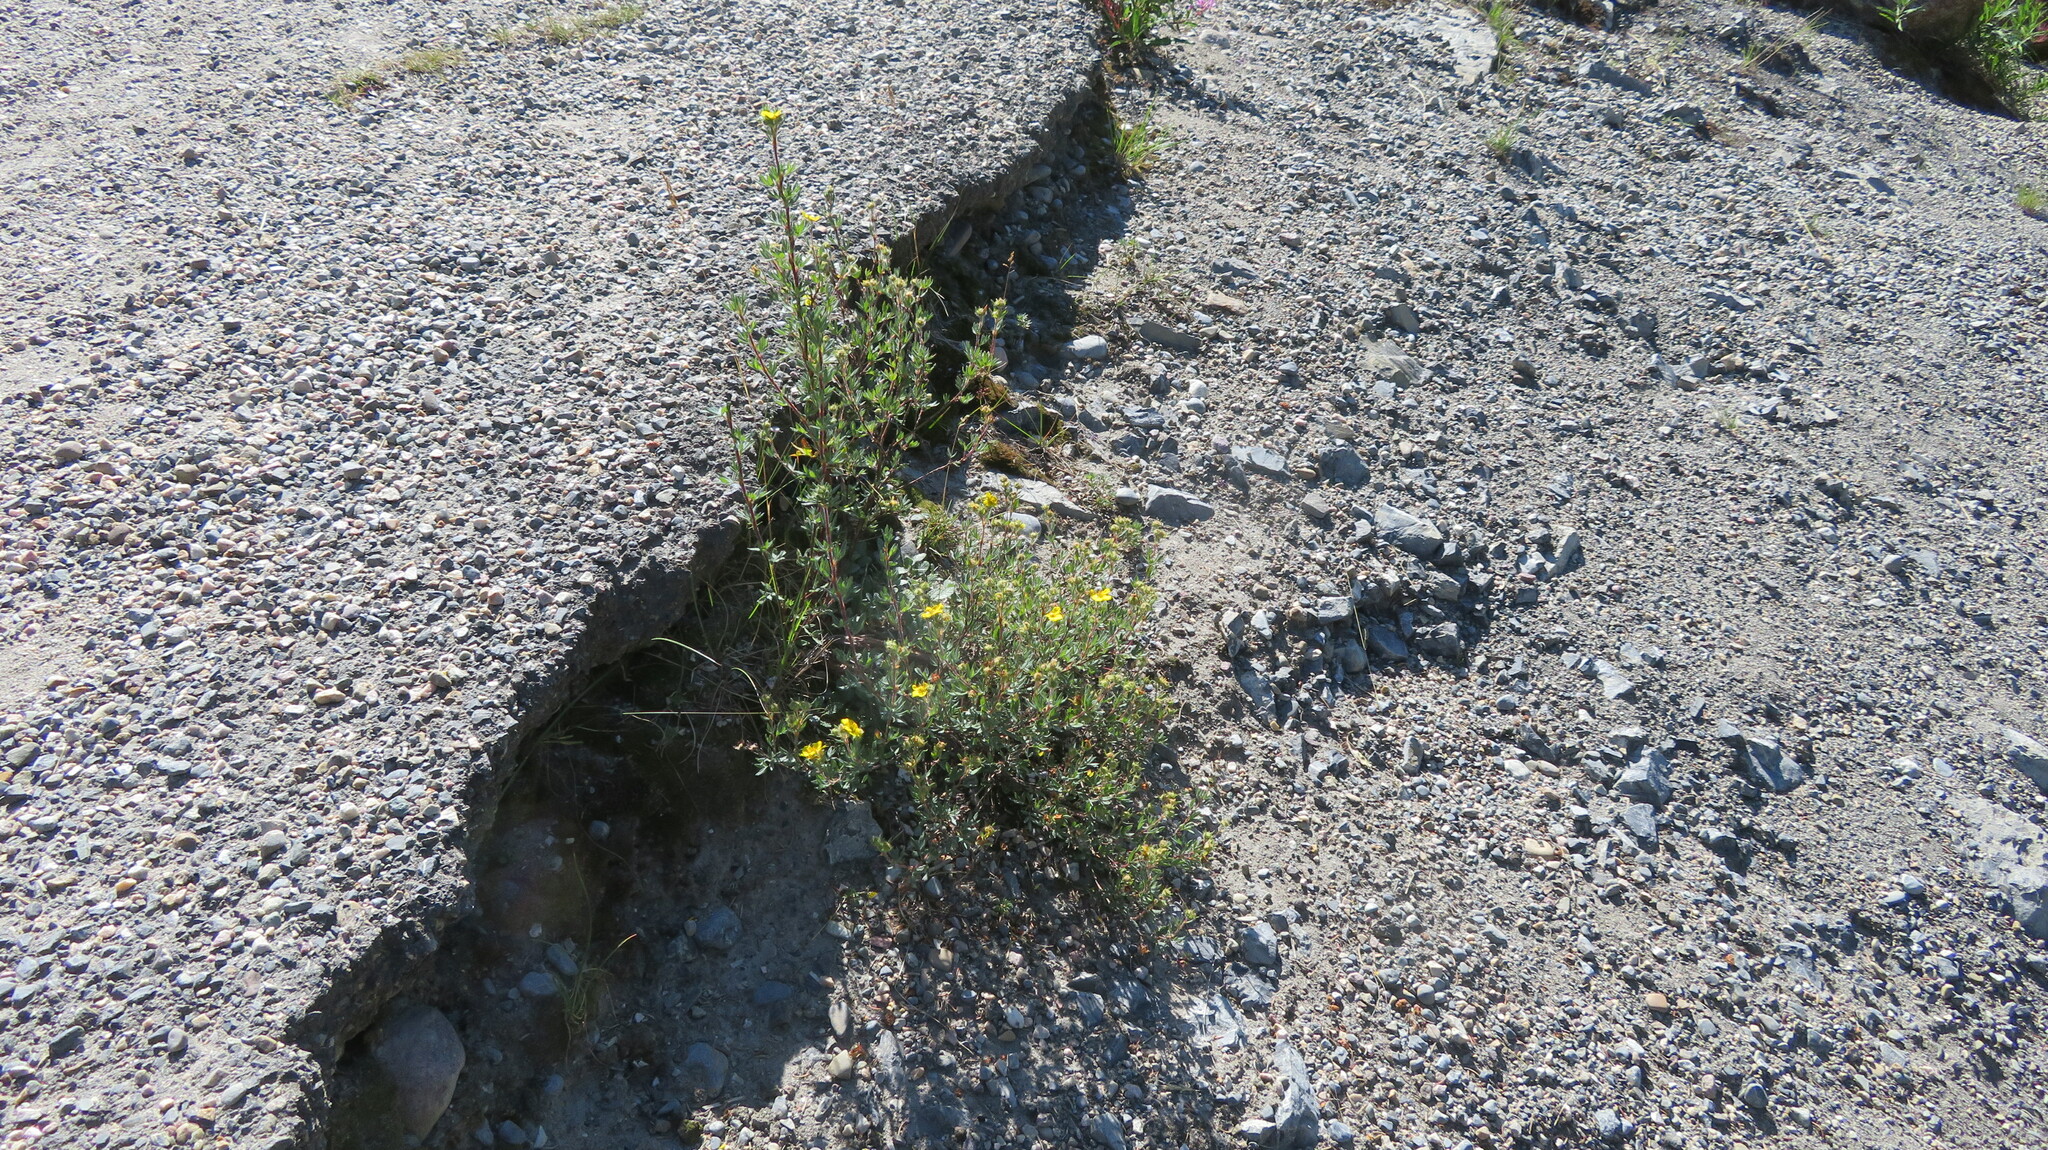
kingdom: Plantae
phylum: Tracheophyta
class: Magnoliopsida
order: Rosales
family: Rosaceae
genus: Dasiphora
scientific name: Dasiphora fruticosa
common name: Shrubby cinquefoil
